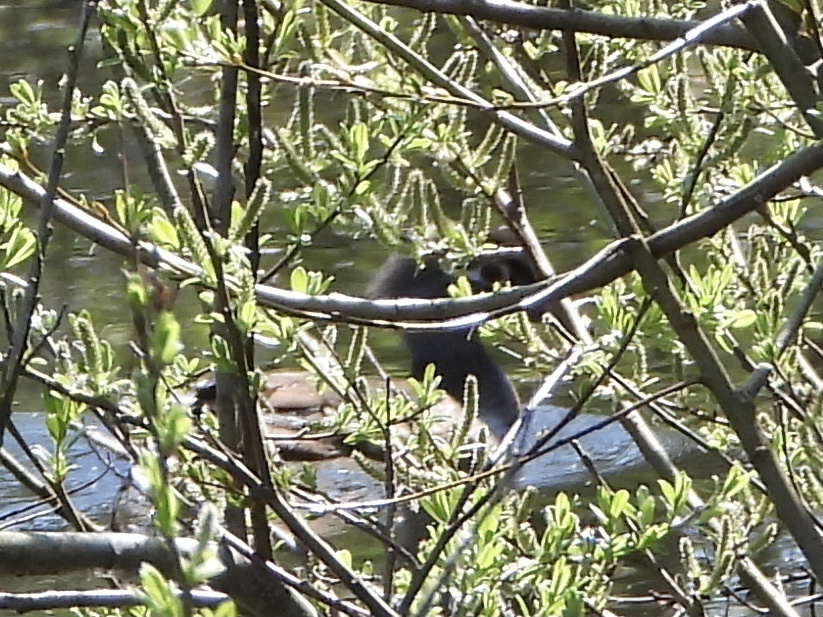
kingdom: Animalia
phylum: Chordata
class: Aves
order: Anseriformes
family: Anatidae
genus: Aix
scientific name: Aix sponsa
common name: Wood duck
